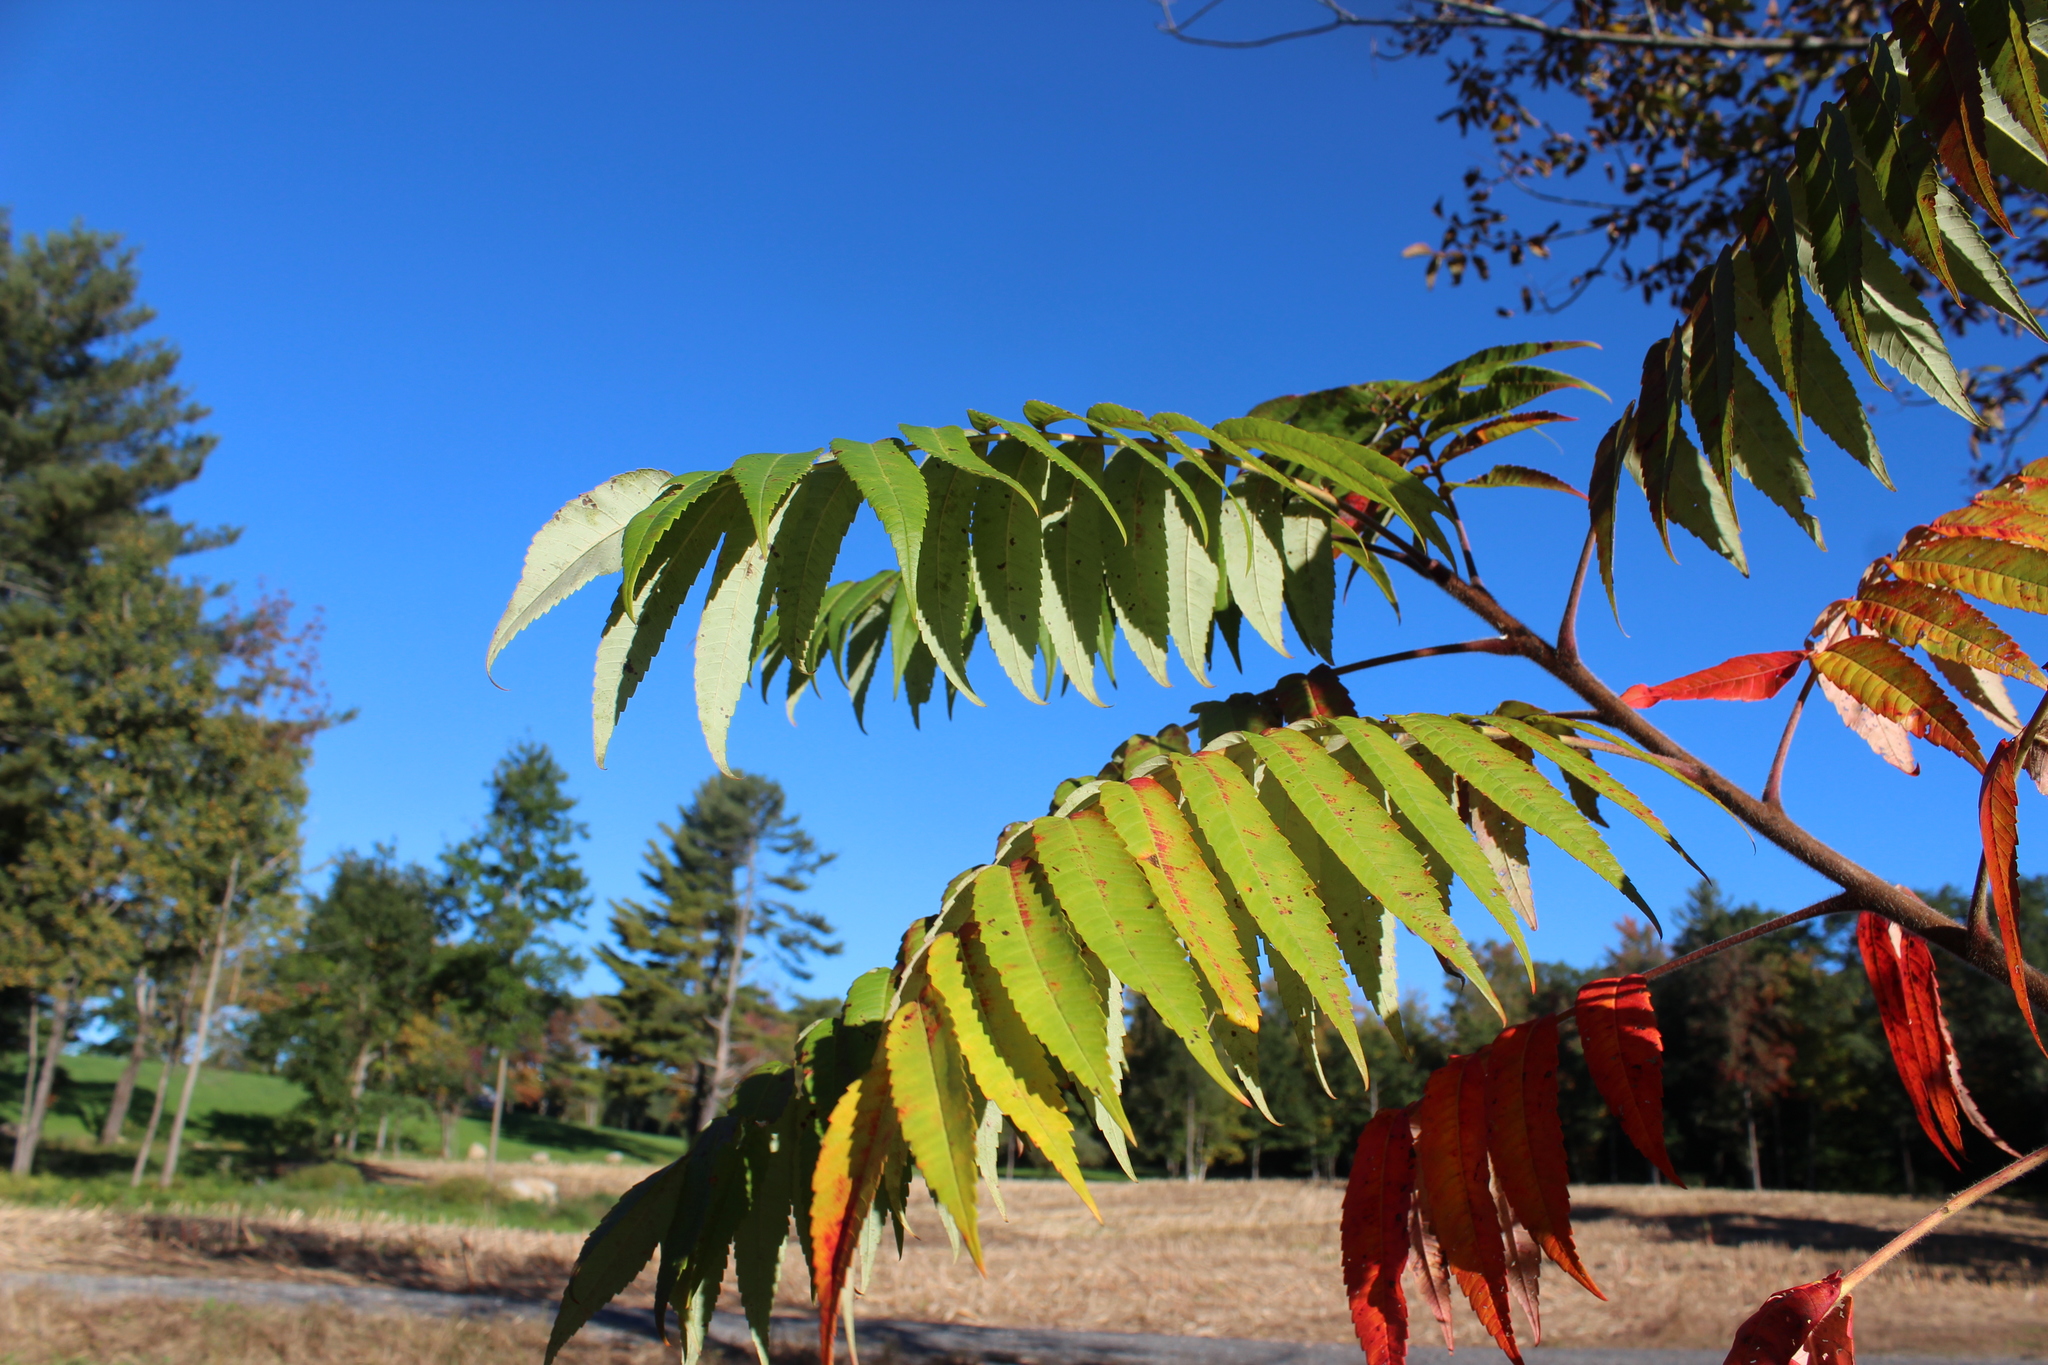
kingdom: Plantae
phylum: Tracheophyta
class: Magnoliopsida
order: Sapindales
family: Anacardiaceae
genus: Rhus
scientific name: Rhus typhina
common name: Staghorn sumac
